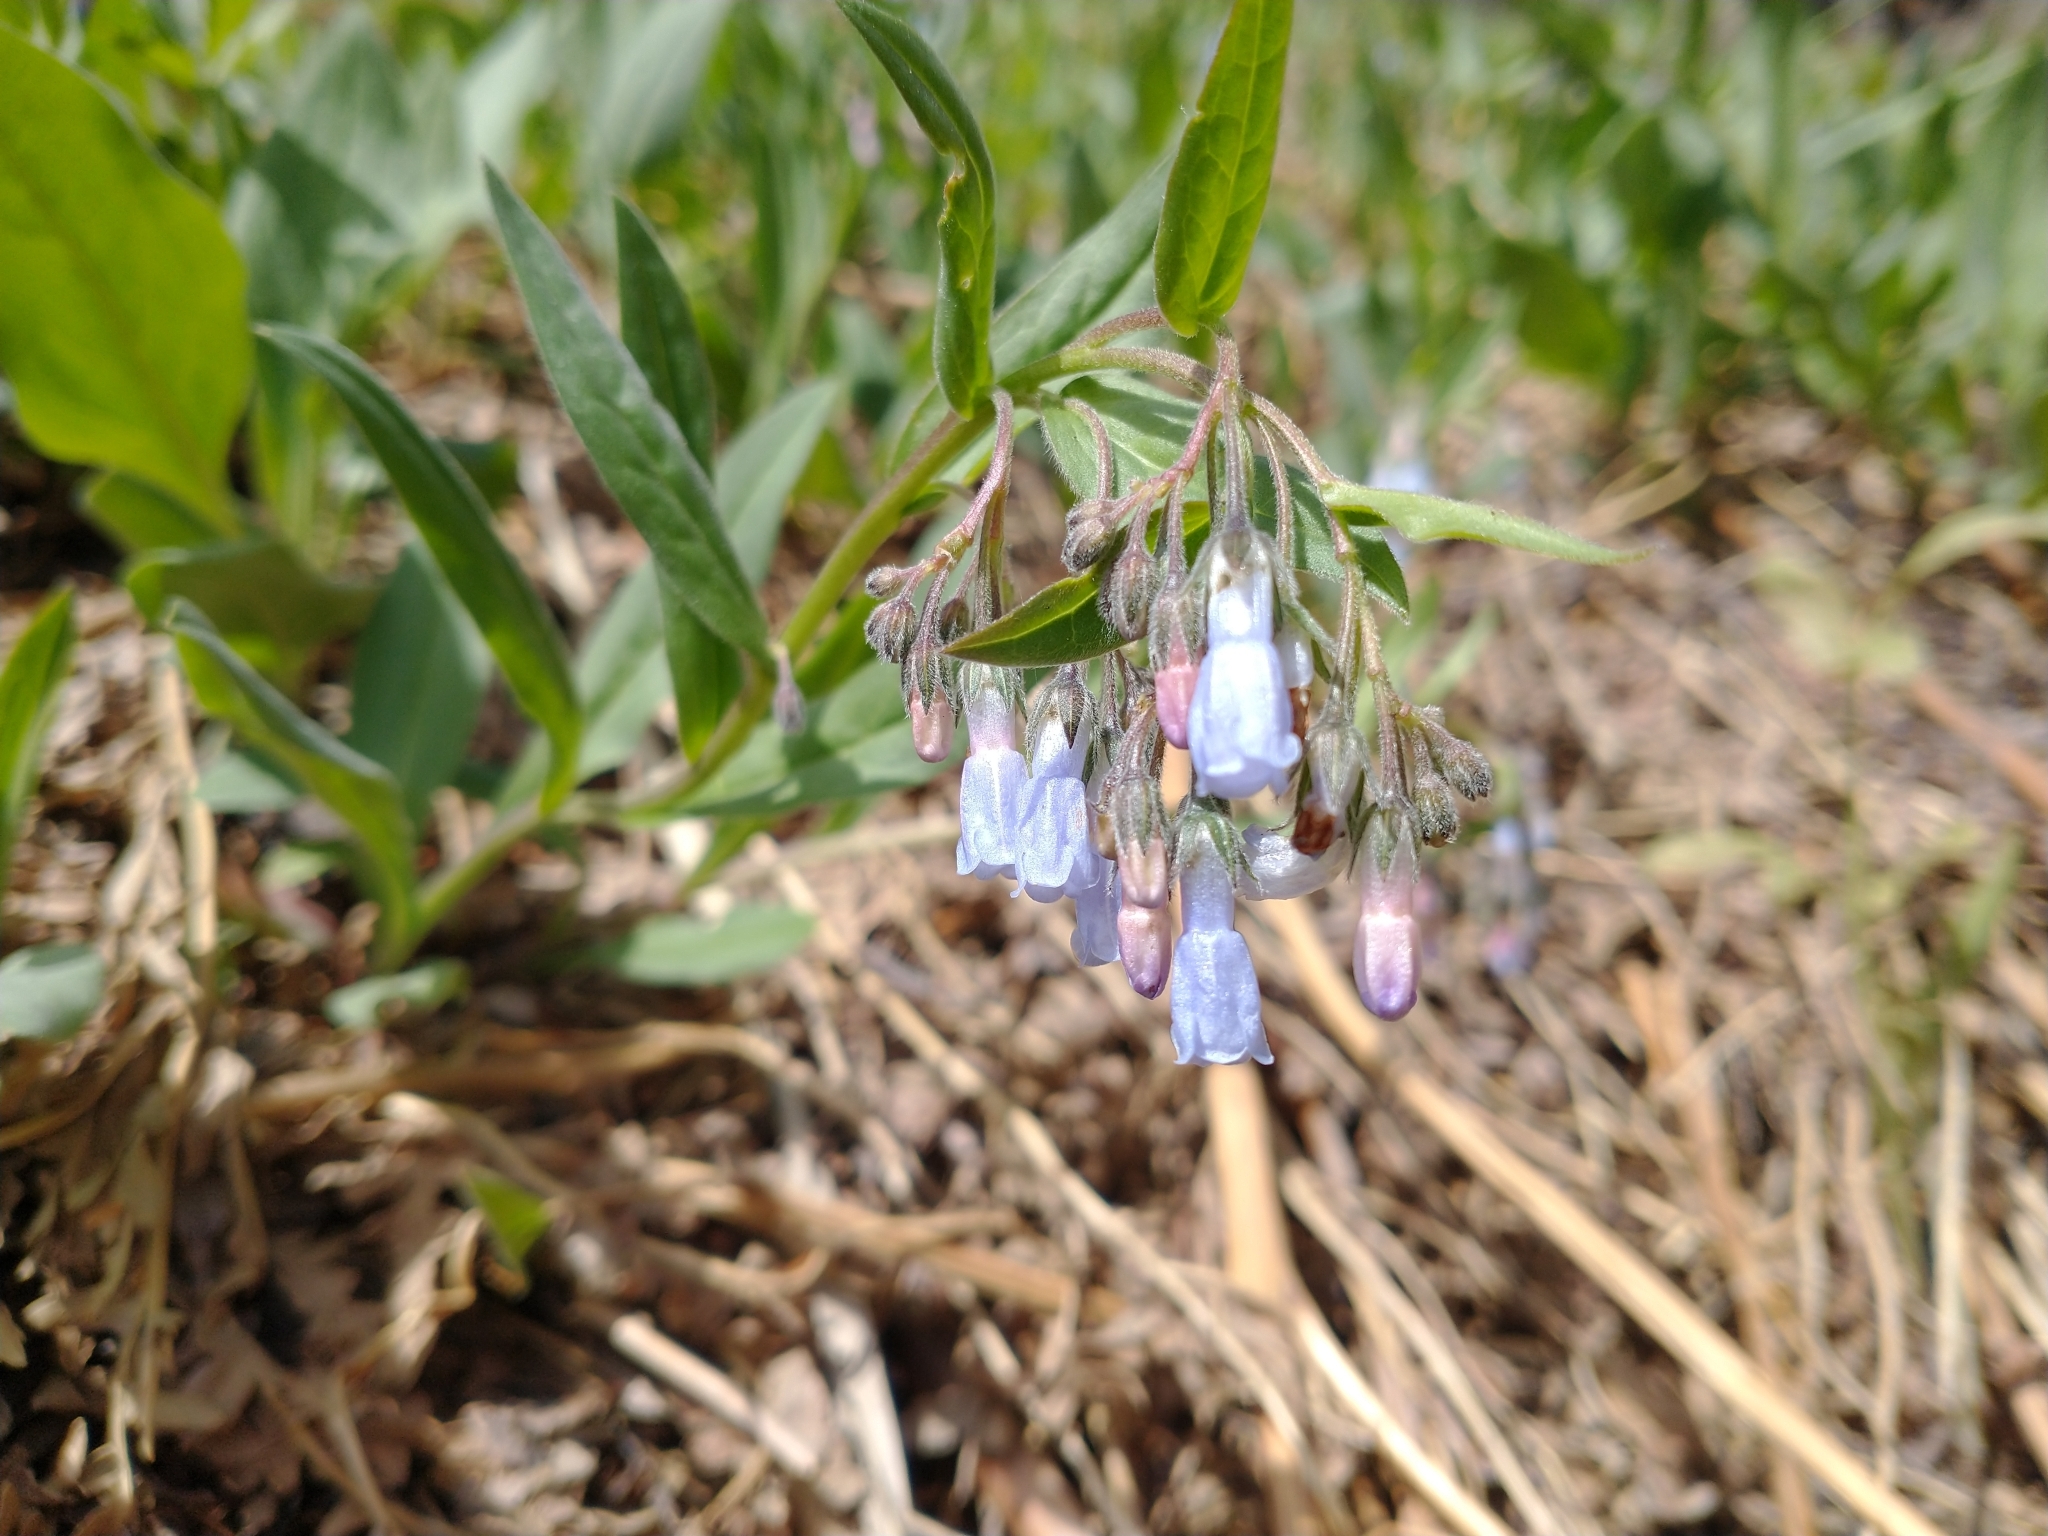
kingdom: Plantae
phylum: Tracheophyta
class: Magnoliopsida
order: Boraginales
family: Boraginaceae
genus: Mertensia
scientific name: Mertensia oblongifolia
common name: Sagebrush bluebells
